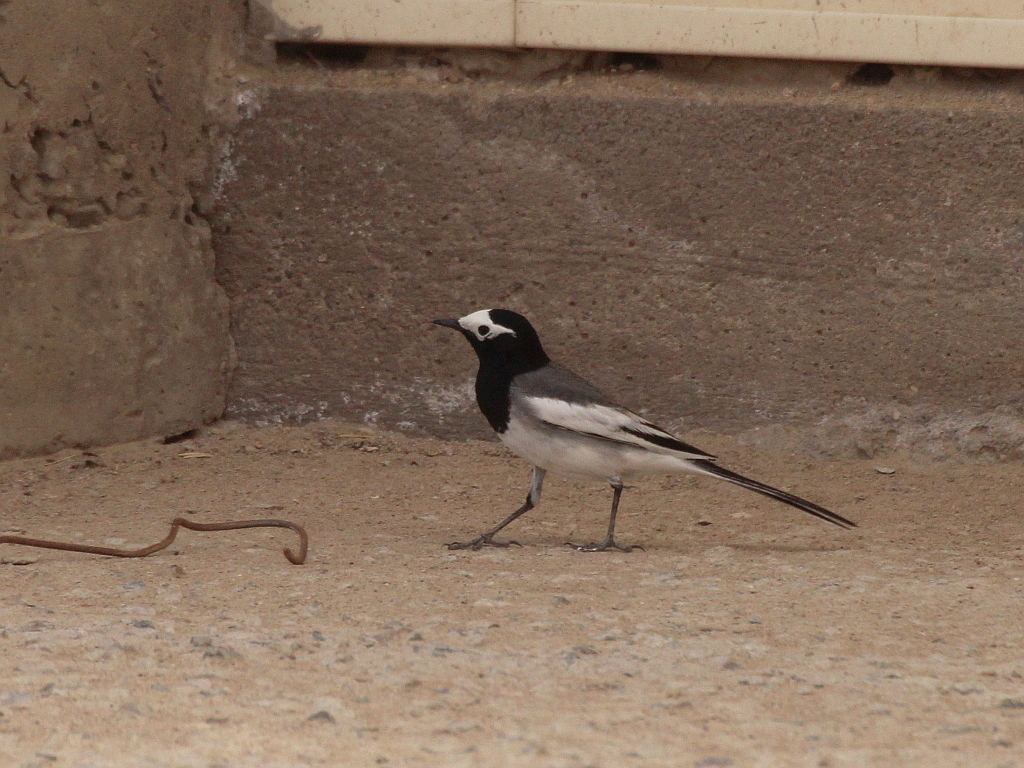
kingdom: Animalia
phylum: Chordata
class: Aves
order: Passeriformes
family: Motacillidae
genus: Motacilla
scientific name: Motacilla alba
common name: White wagtail
